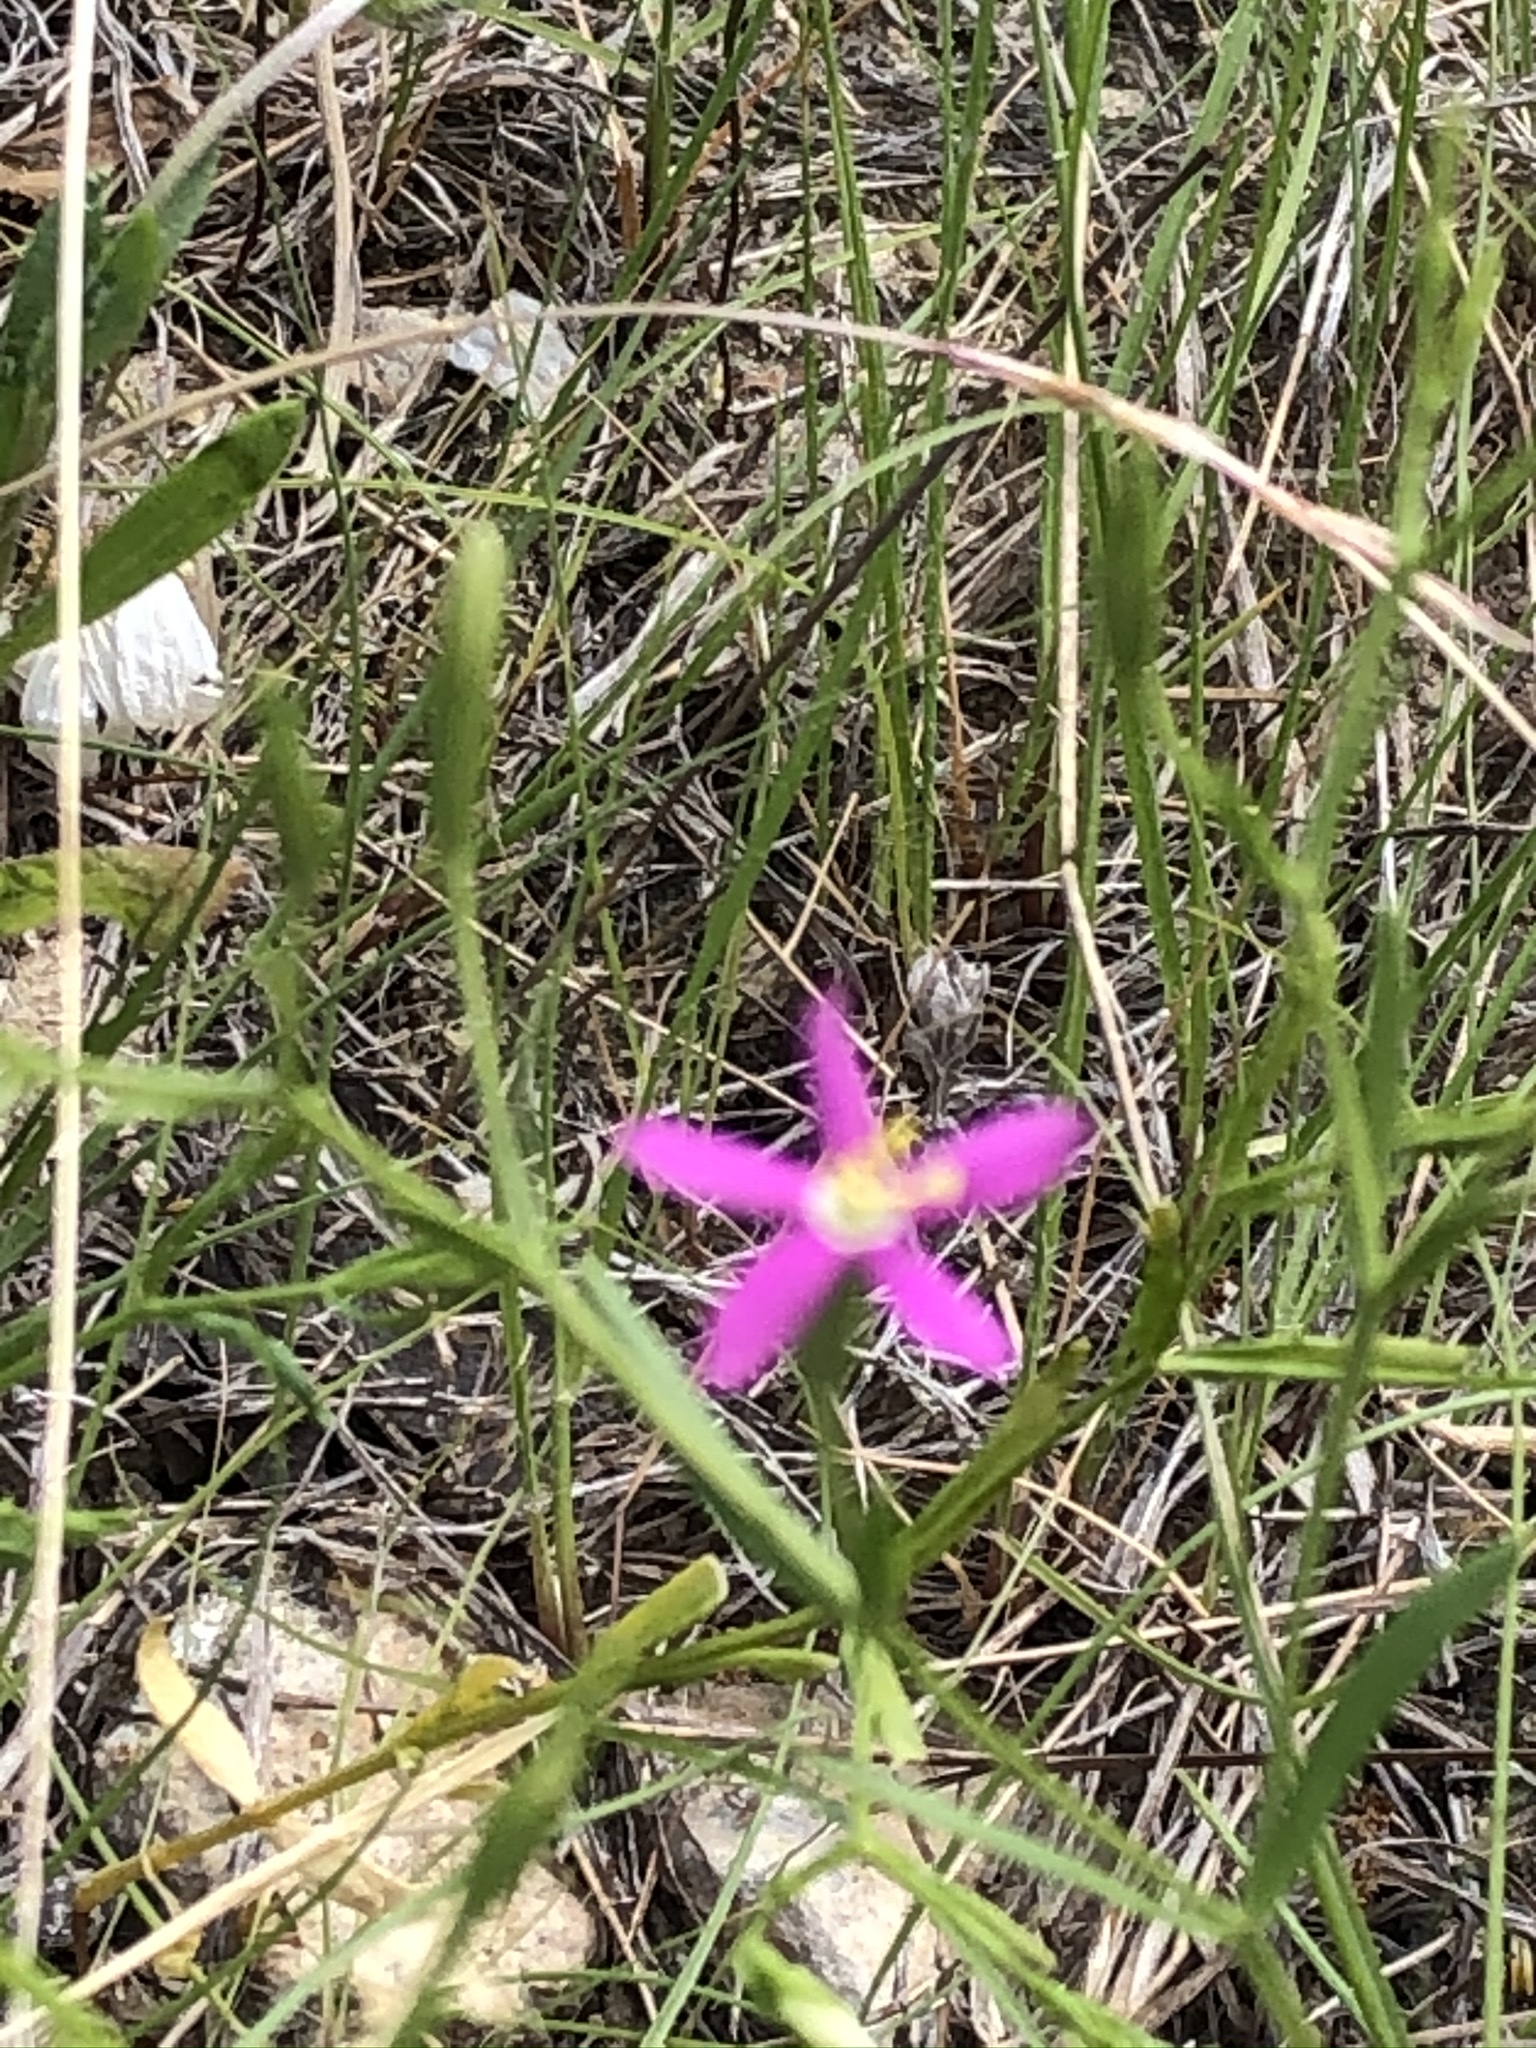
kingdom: Plantae
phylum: Tracheophyta
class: Magnoliopsida
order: Gentianales
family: Gentianaceae
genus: Sabatia
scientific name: Sabatia campestris
